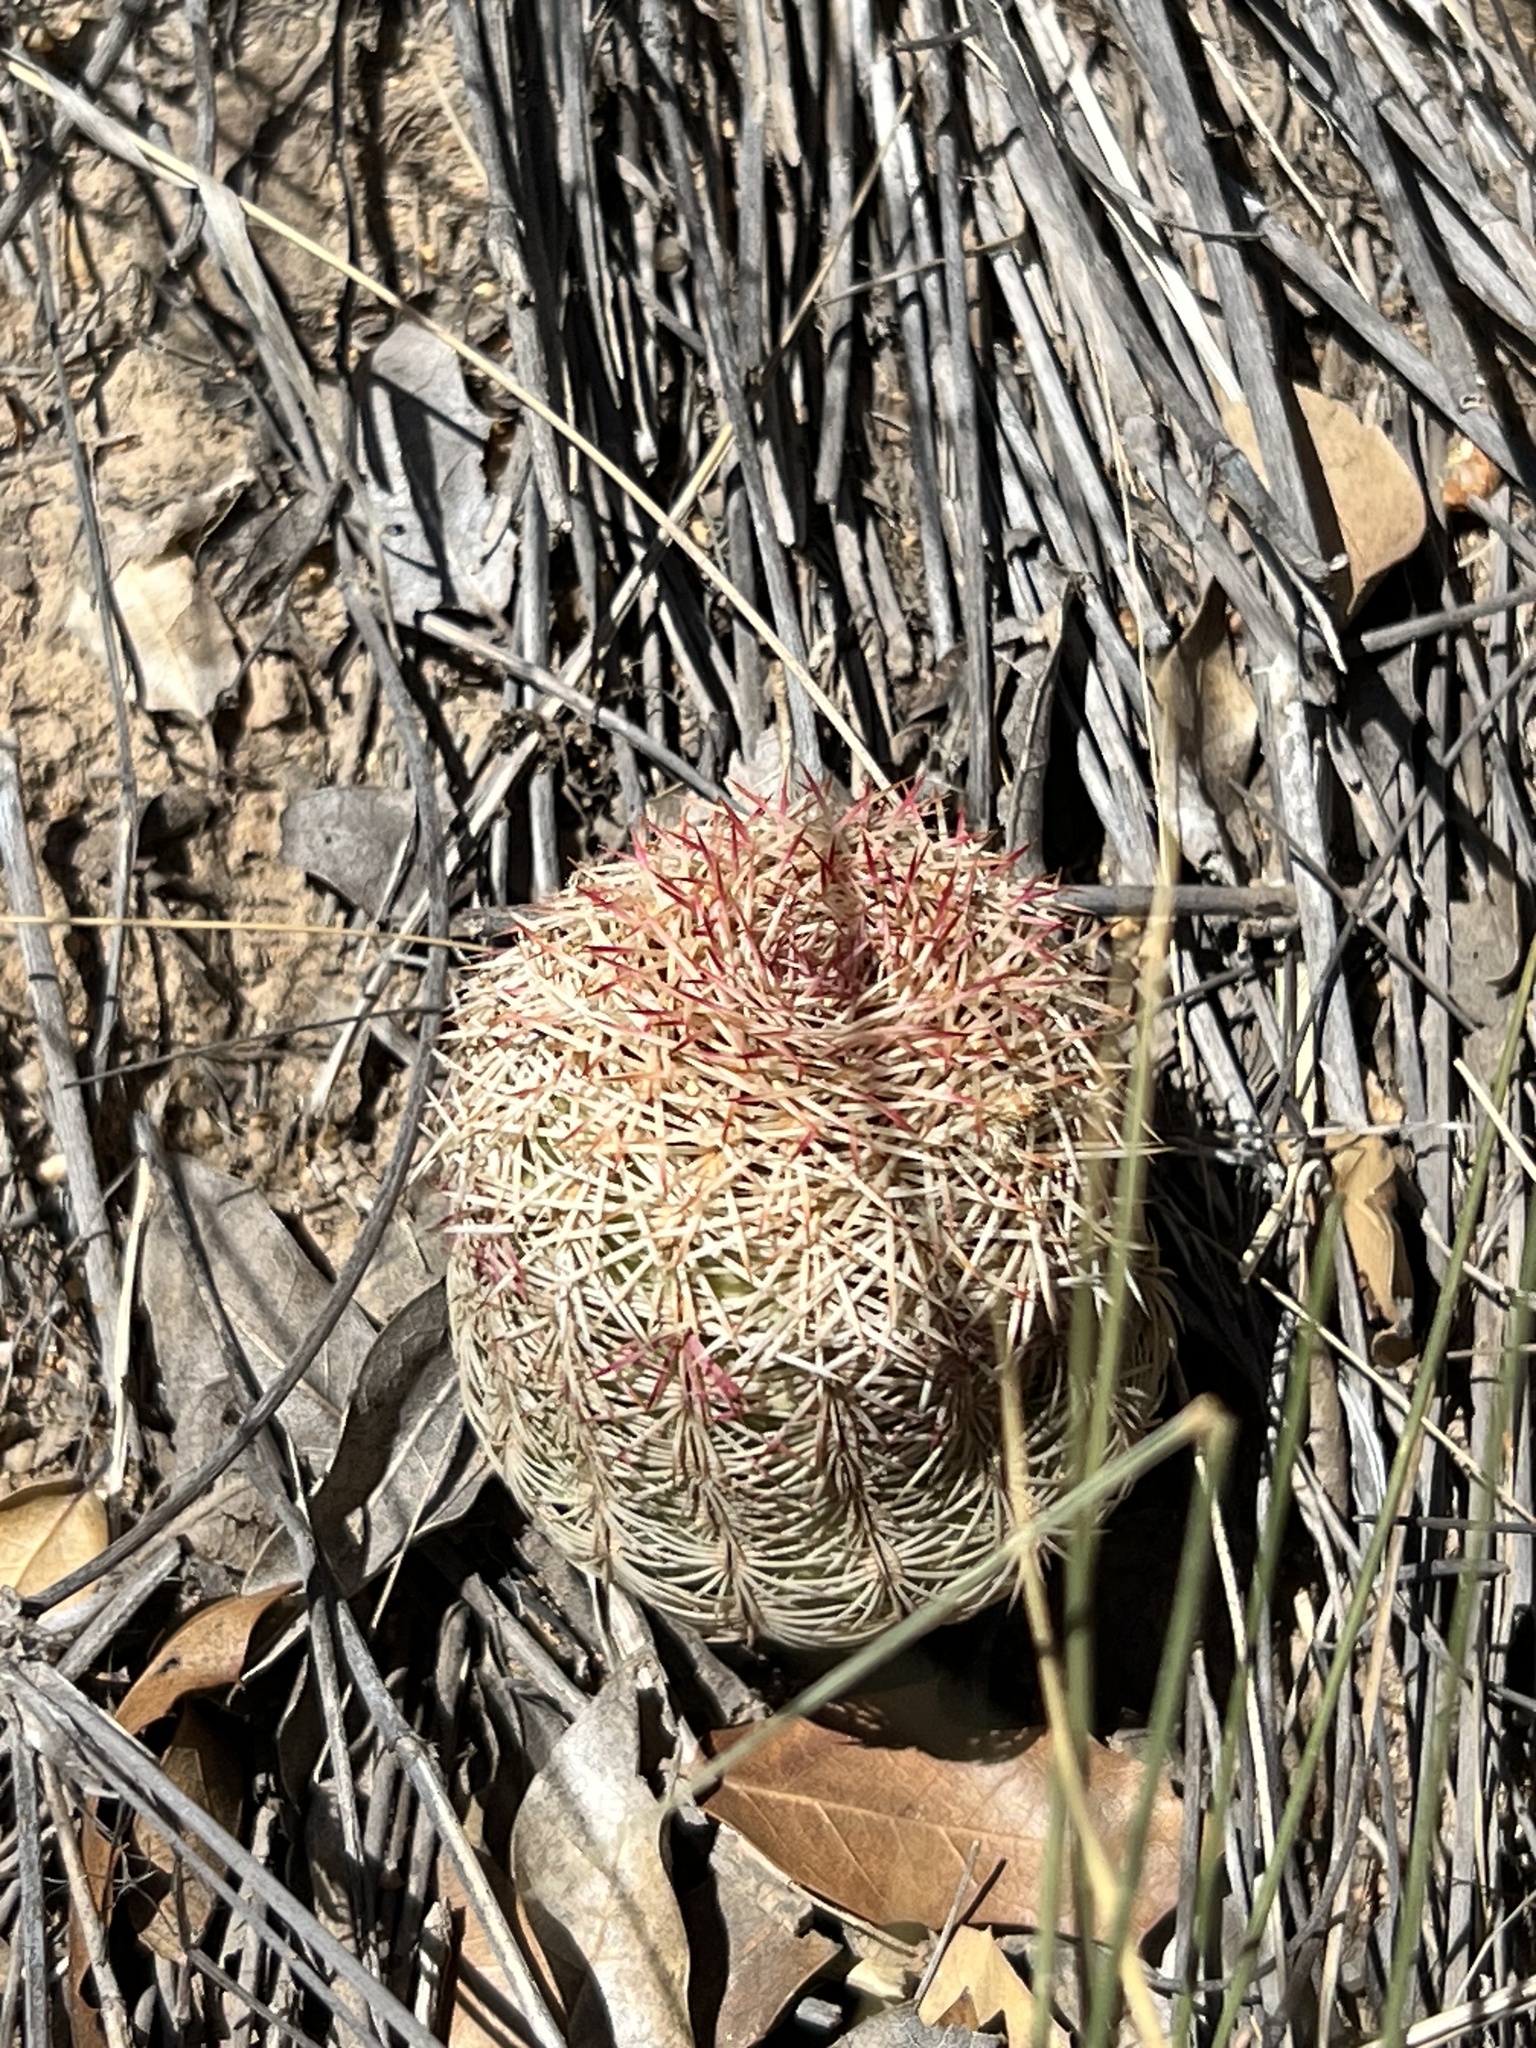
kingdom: Plantae
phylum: Tracheophyta
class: Magnoliopsida
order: Caryophyllales
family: Cactaceae
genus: Echinocereus
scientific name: Echinocereus rigidissimus
